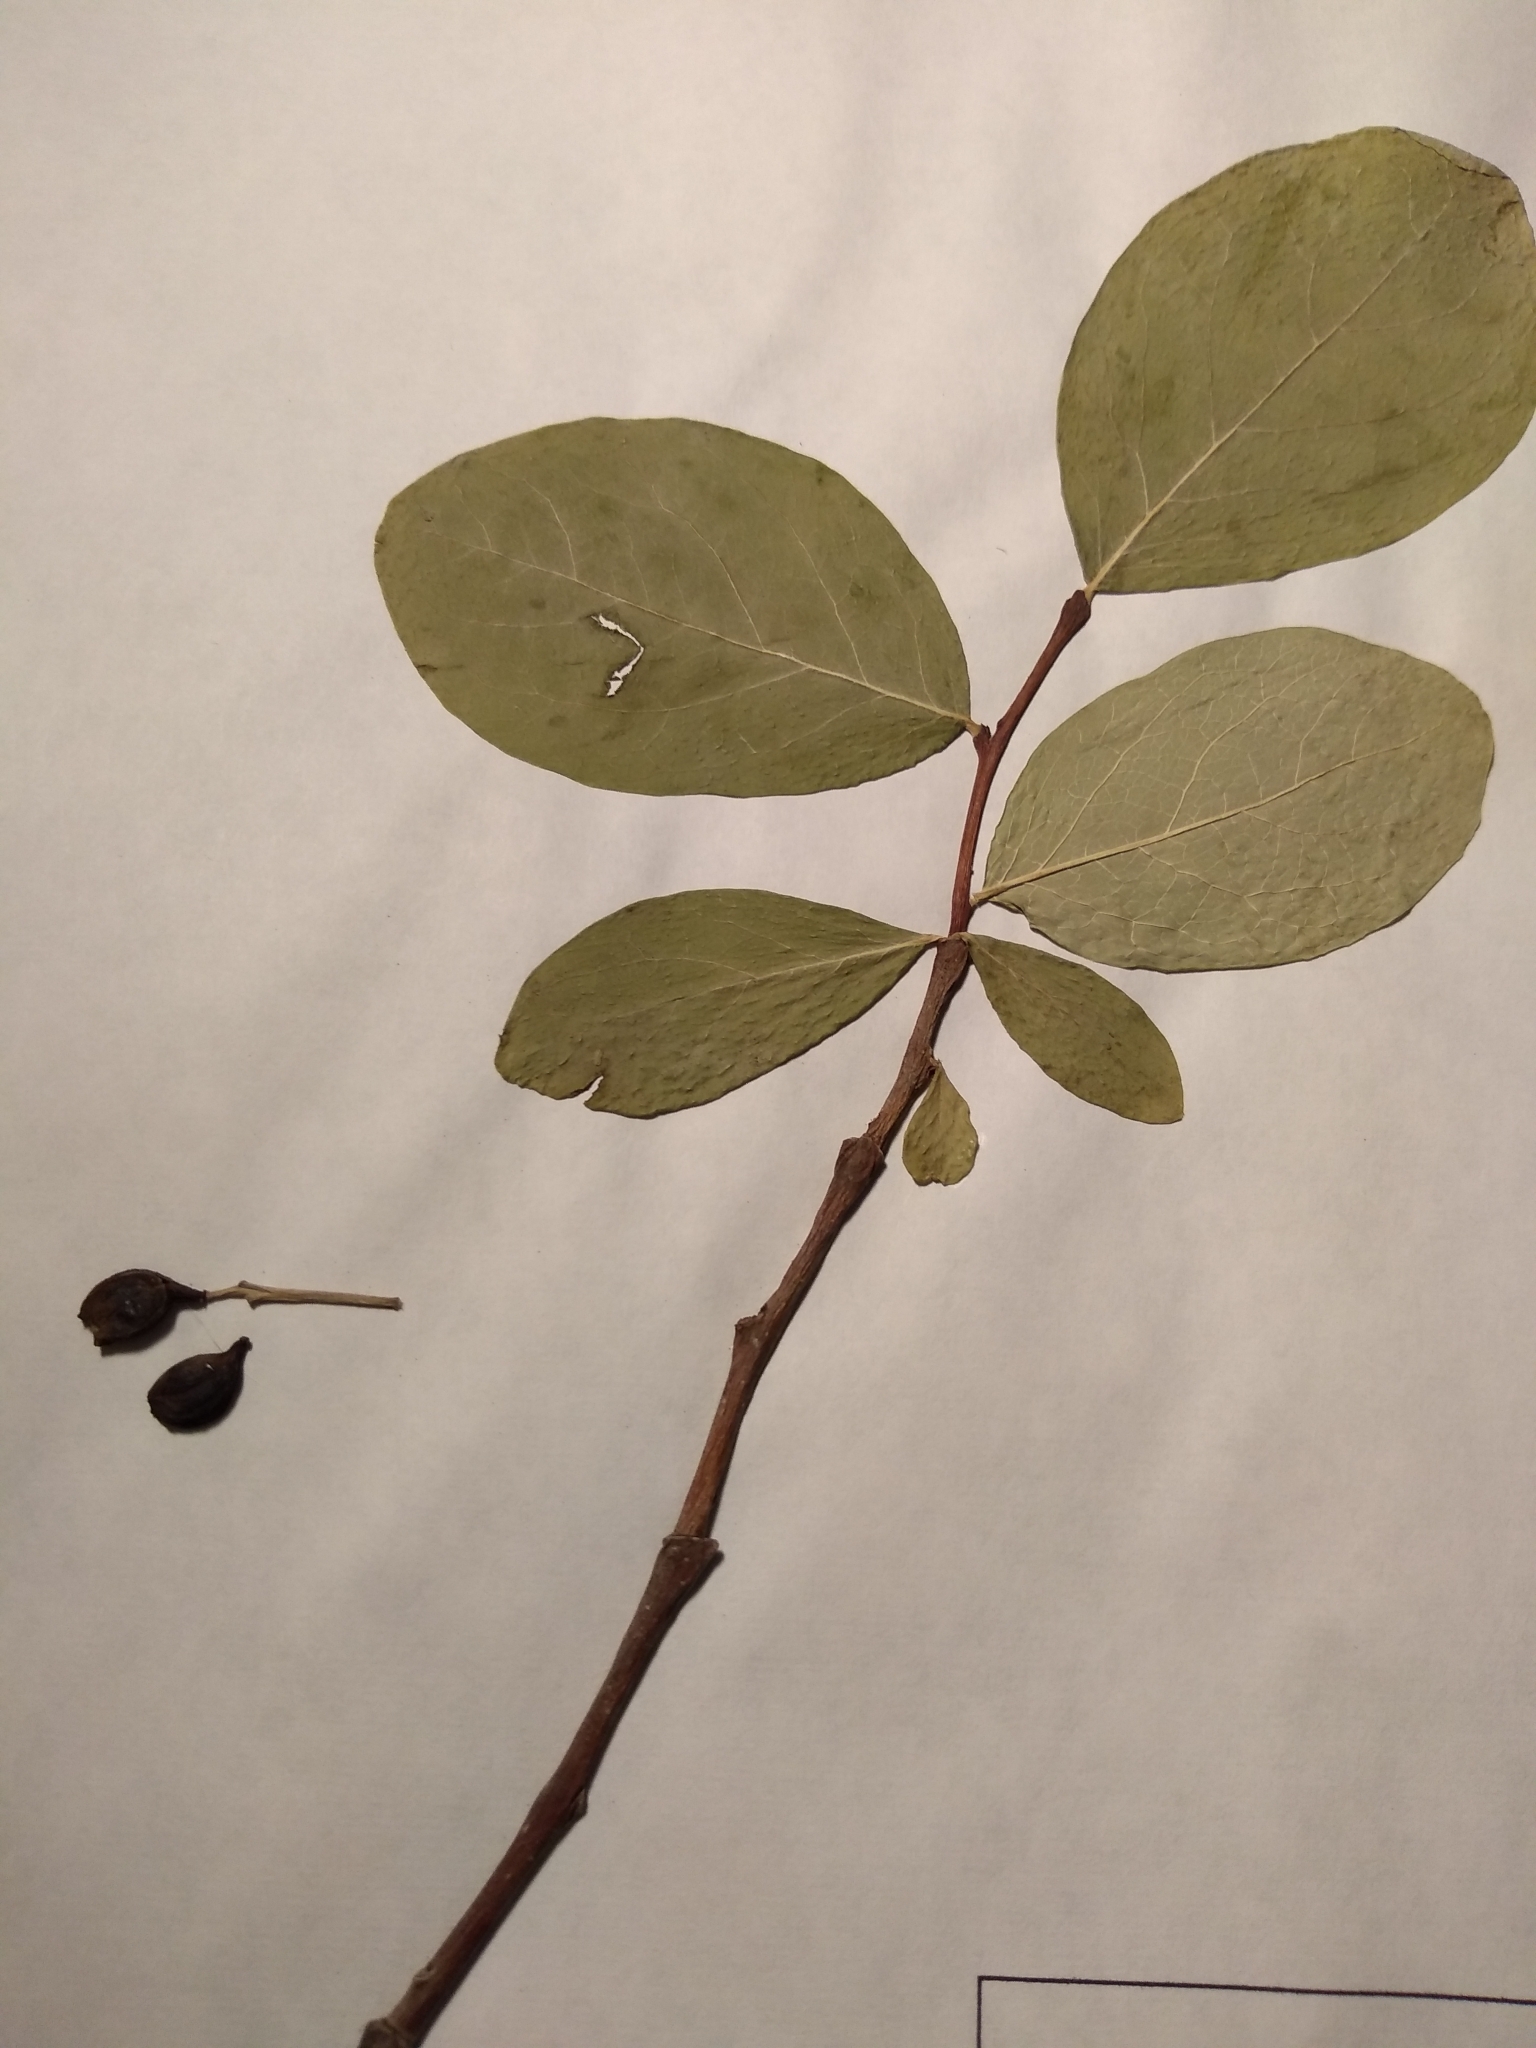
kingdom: Plantae
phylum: Tracheophyta
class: Magnoliopsida
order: Malvales
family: Thymelaeaceae
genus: Dirca
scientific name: Dirca palustris
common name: Leatherwood
